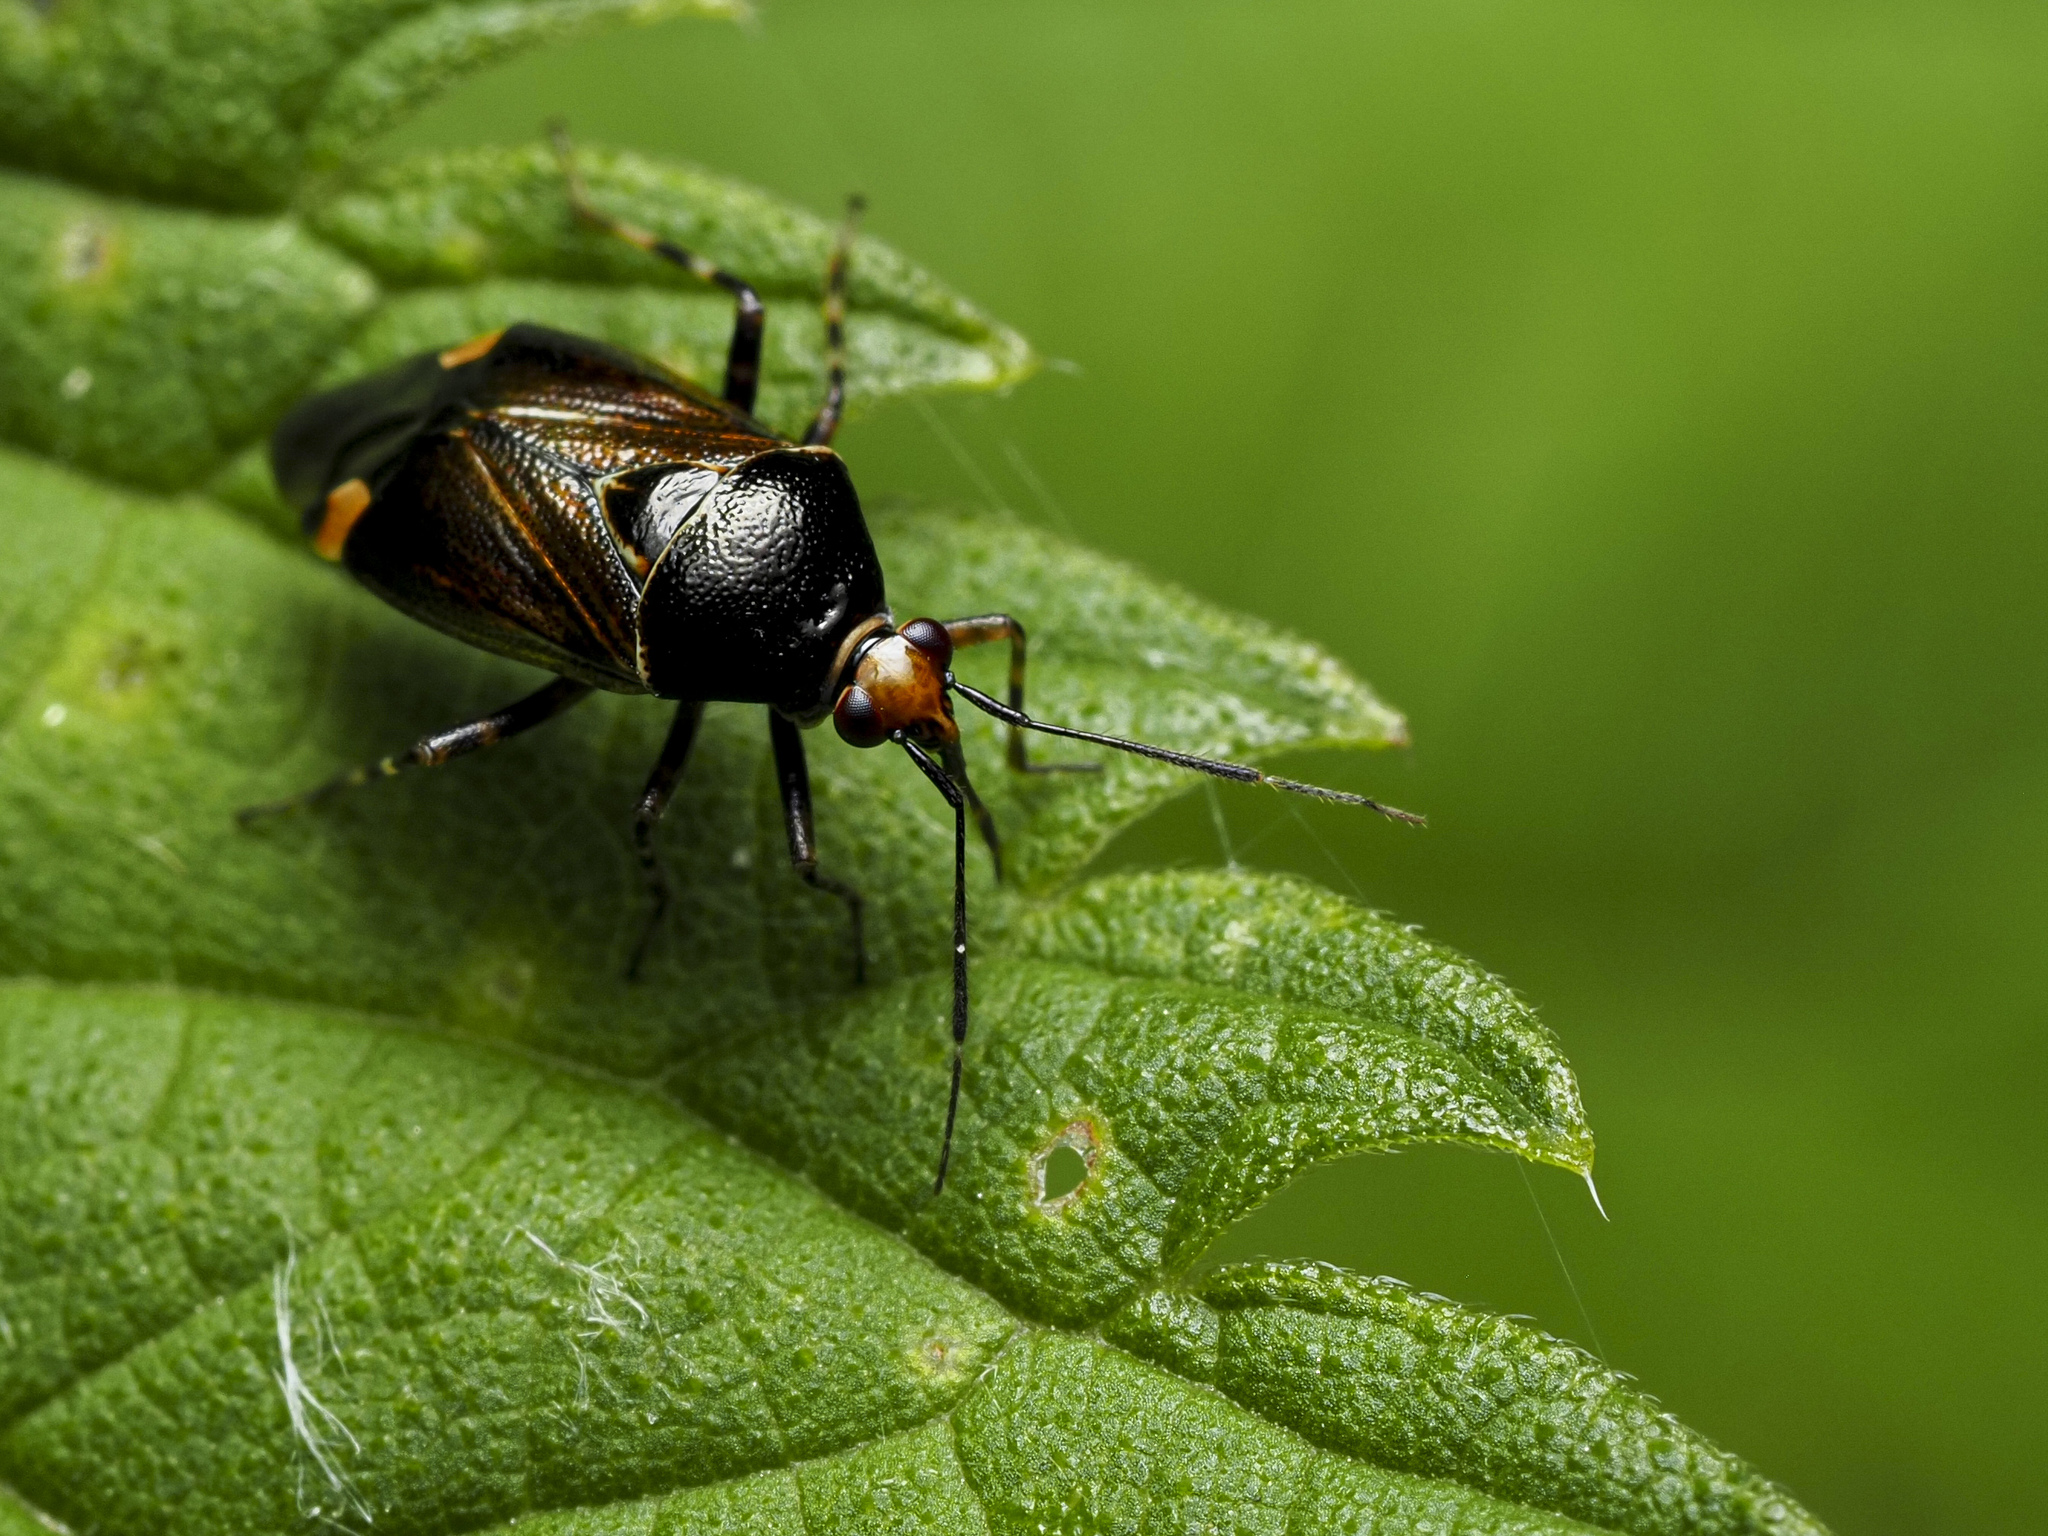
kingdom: Animalia
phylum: Arthropoda
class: Insecta
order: Hemiptera
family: Miridae
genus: Deraeocoris
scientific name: Deraeocoris flavilinea
